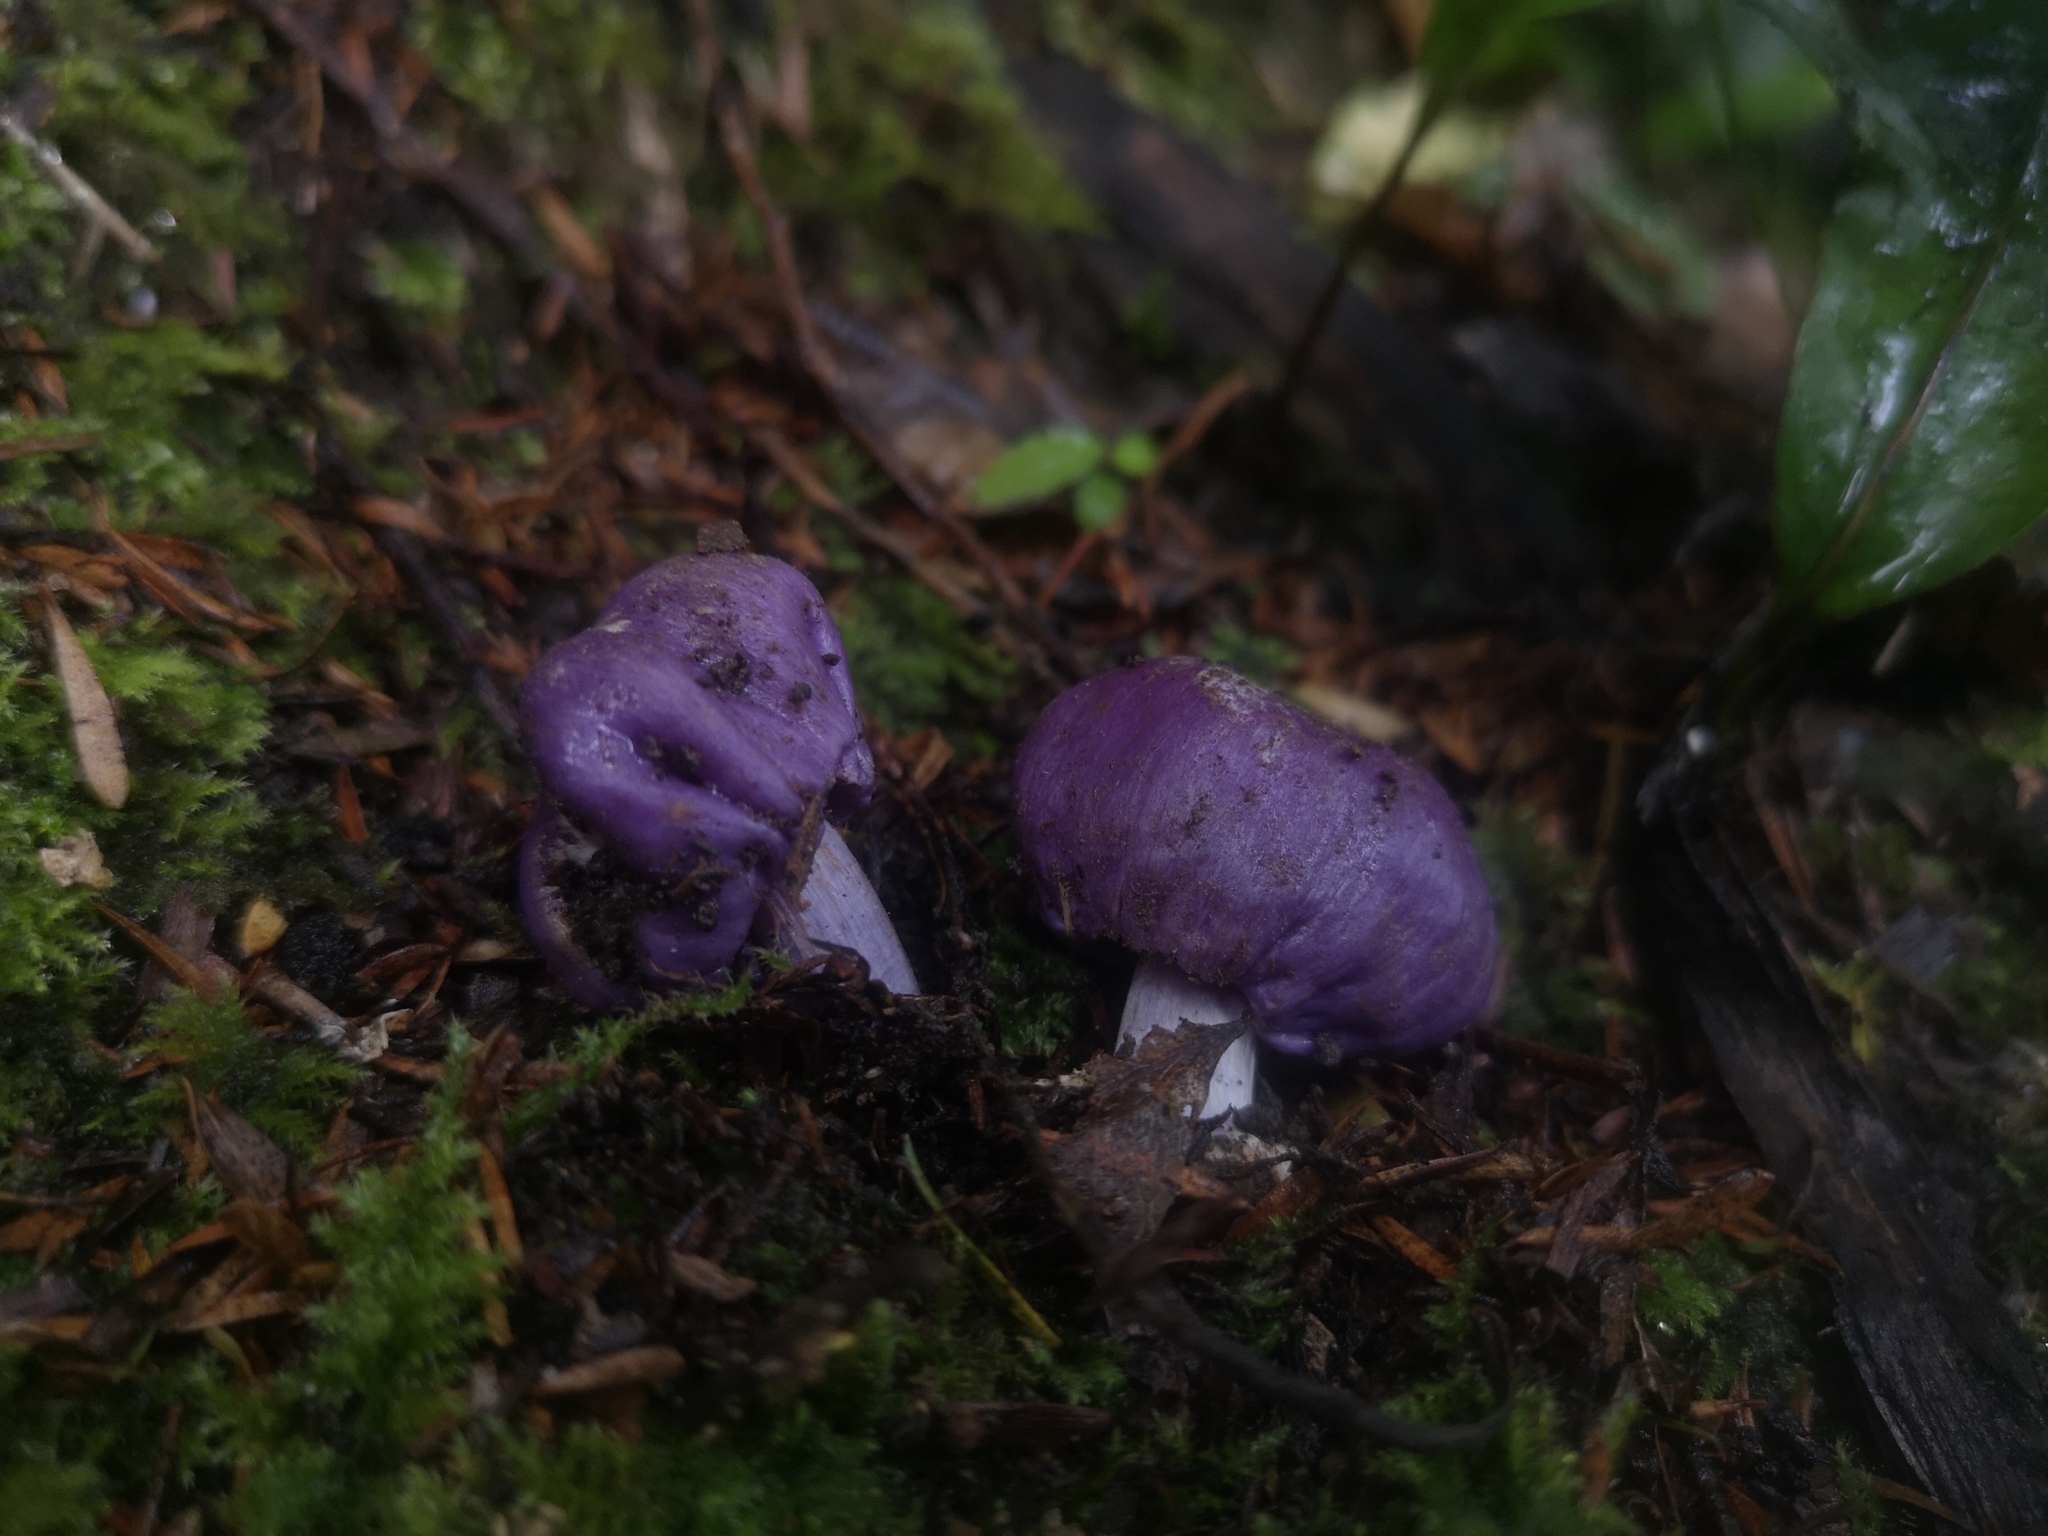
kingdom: Fungi
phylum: Basidiomycota
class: Agaricomycetes
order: Agaricales
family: Cortinariaceae
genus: Cortinarius
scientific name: Cortinarius coneae
